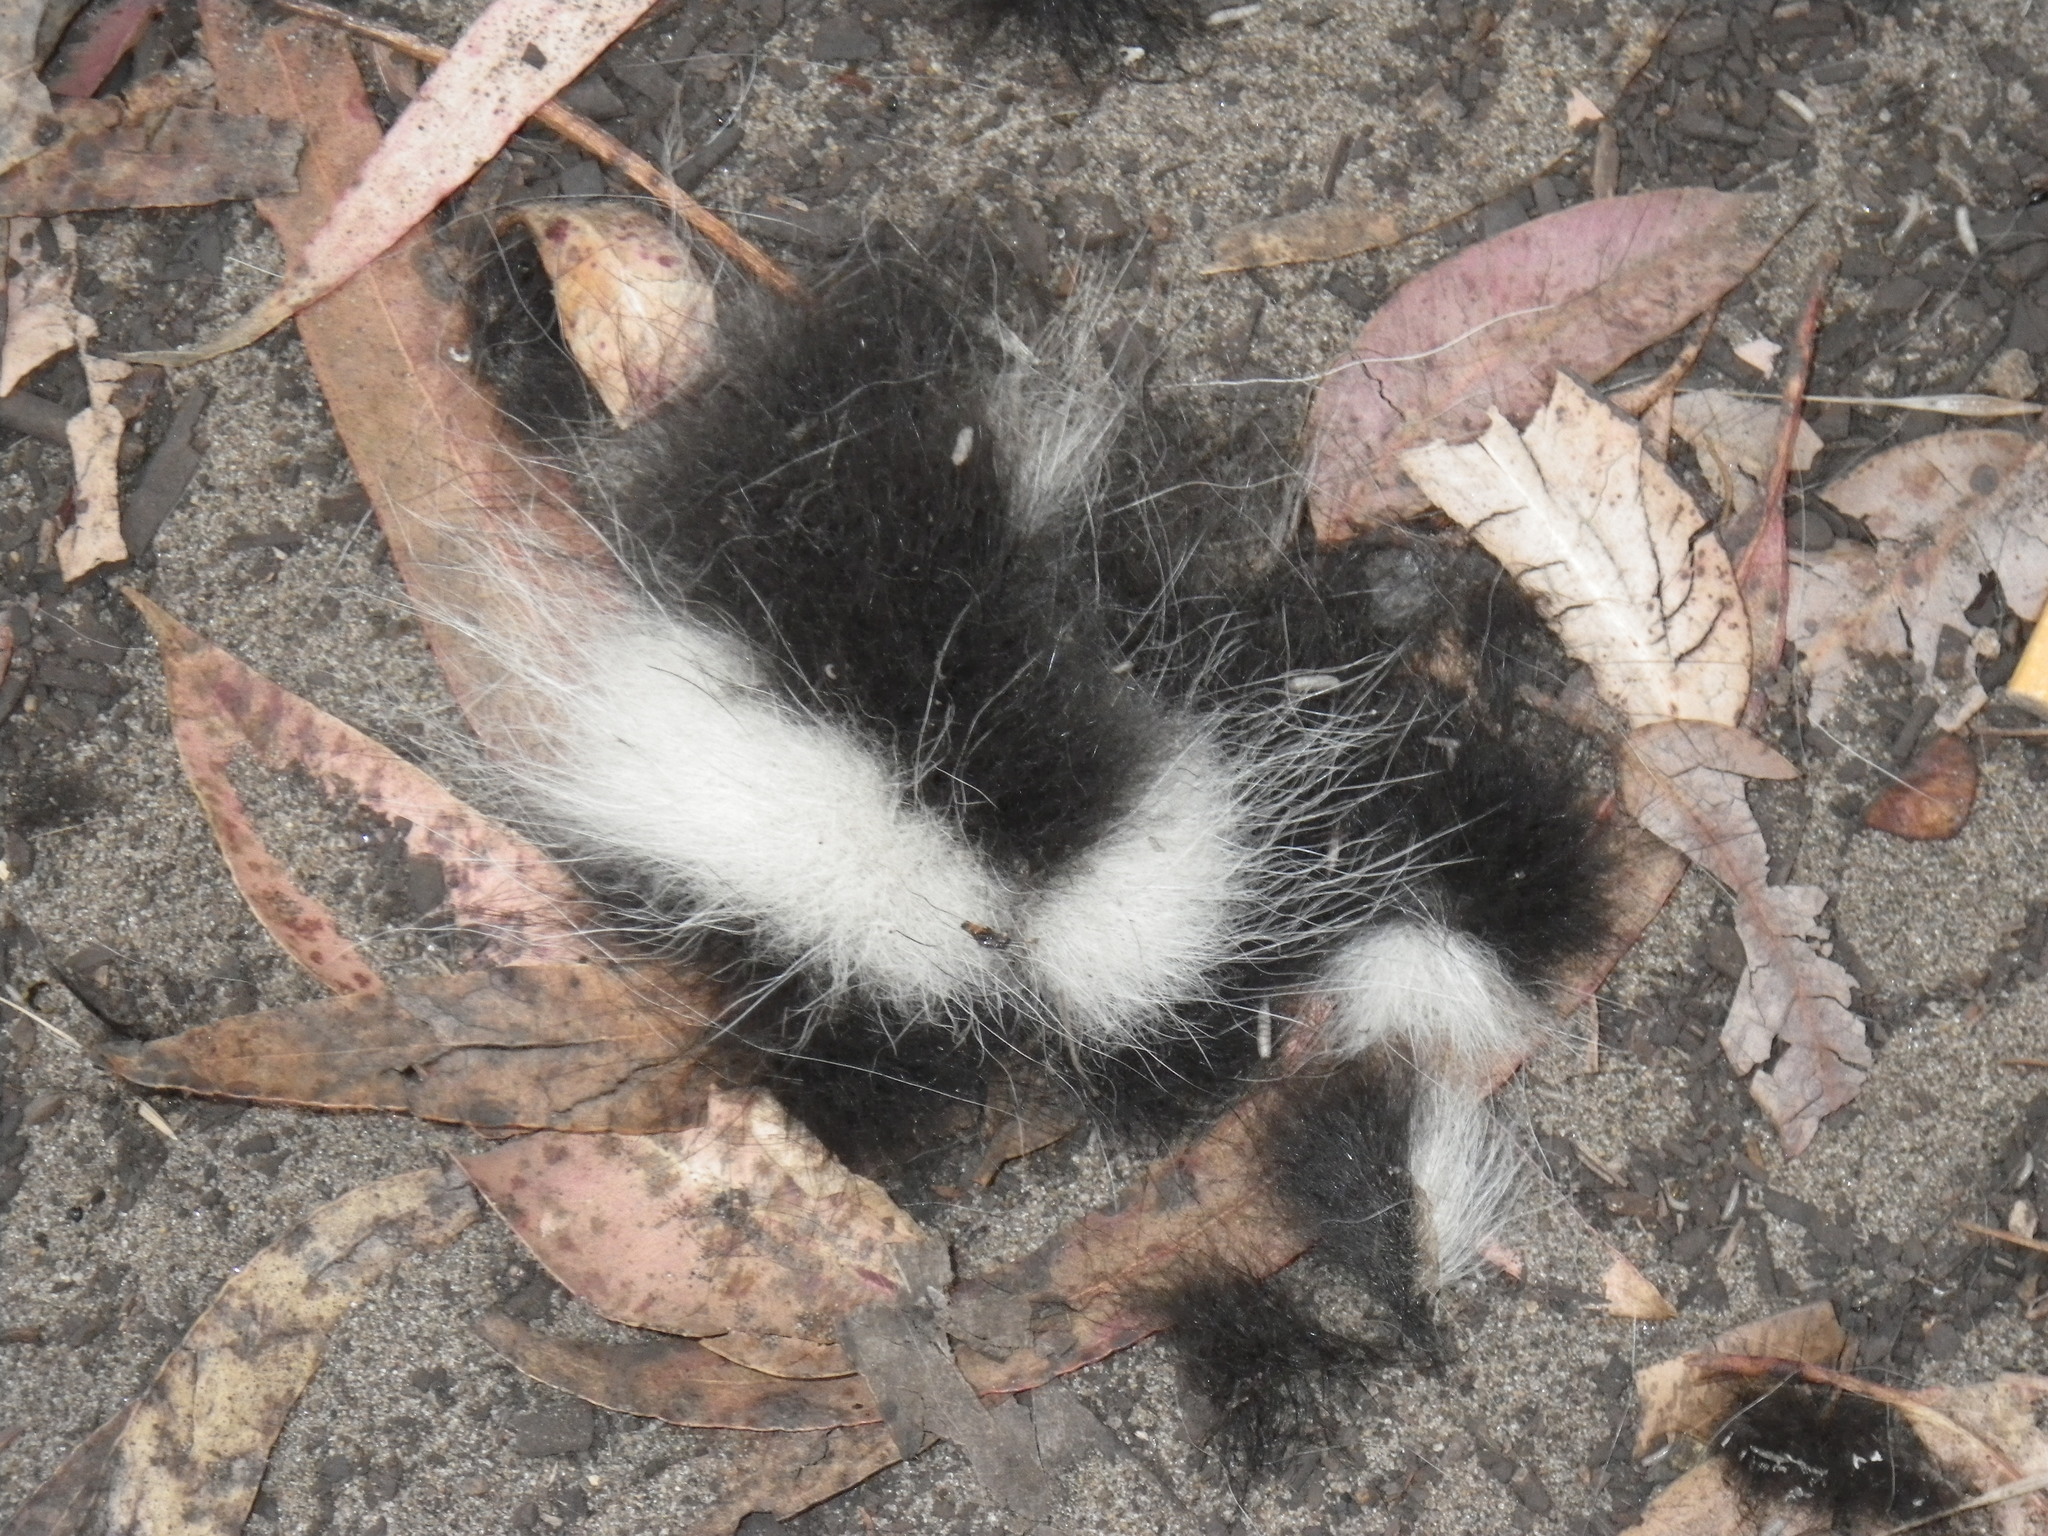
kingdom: Animalia
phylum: Chordata
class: Mammalia
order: Carnivora
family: Mephitidae
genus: Mephitis
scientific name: Mephitis mephitis
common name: Striped skunk
